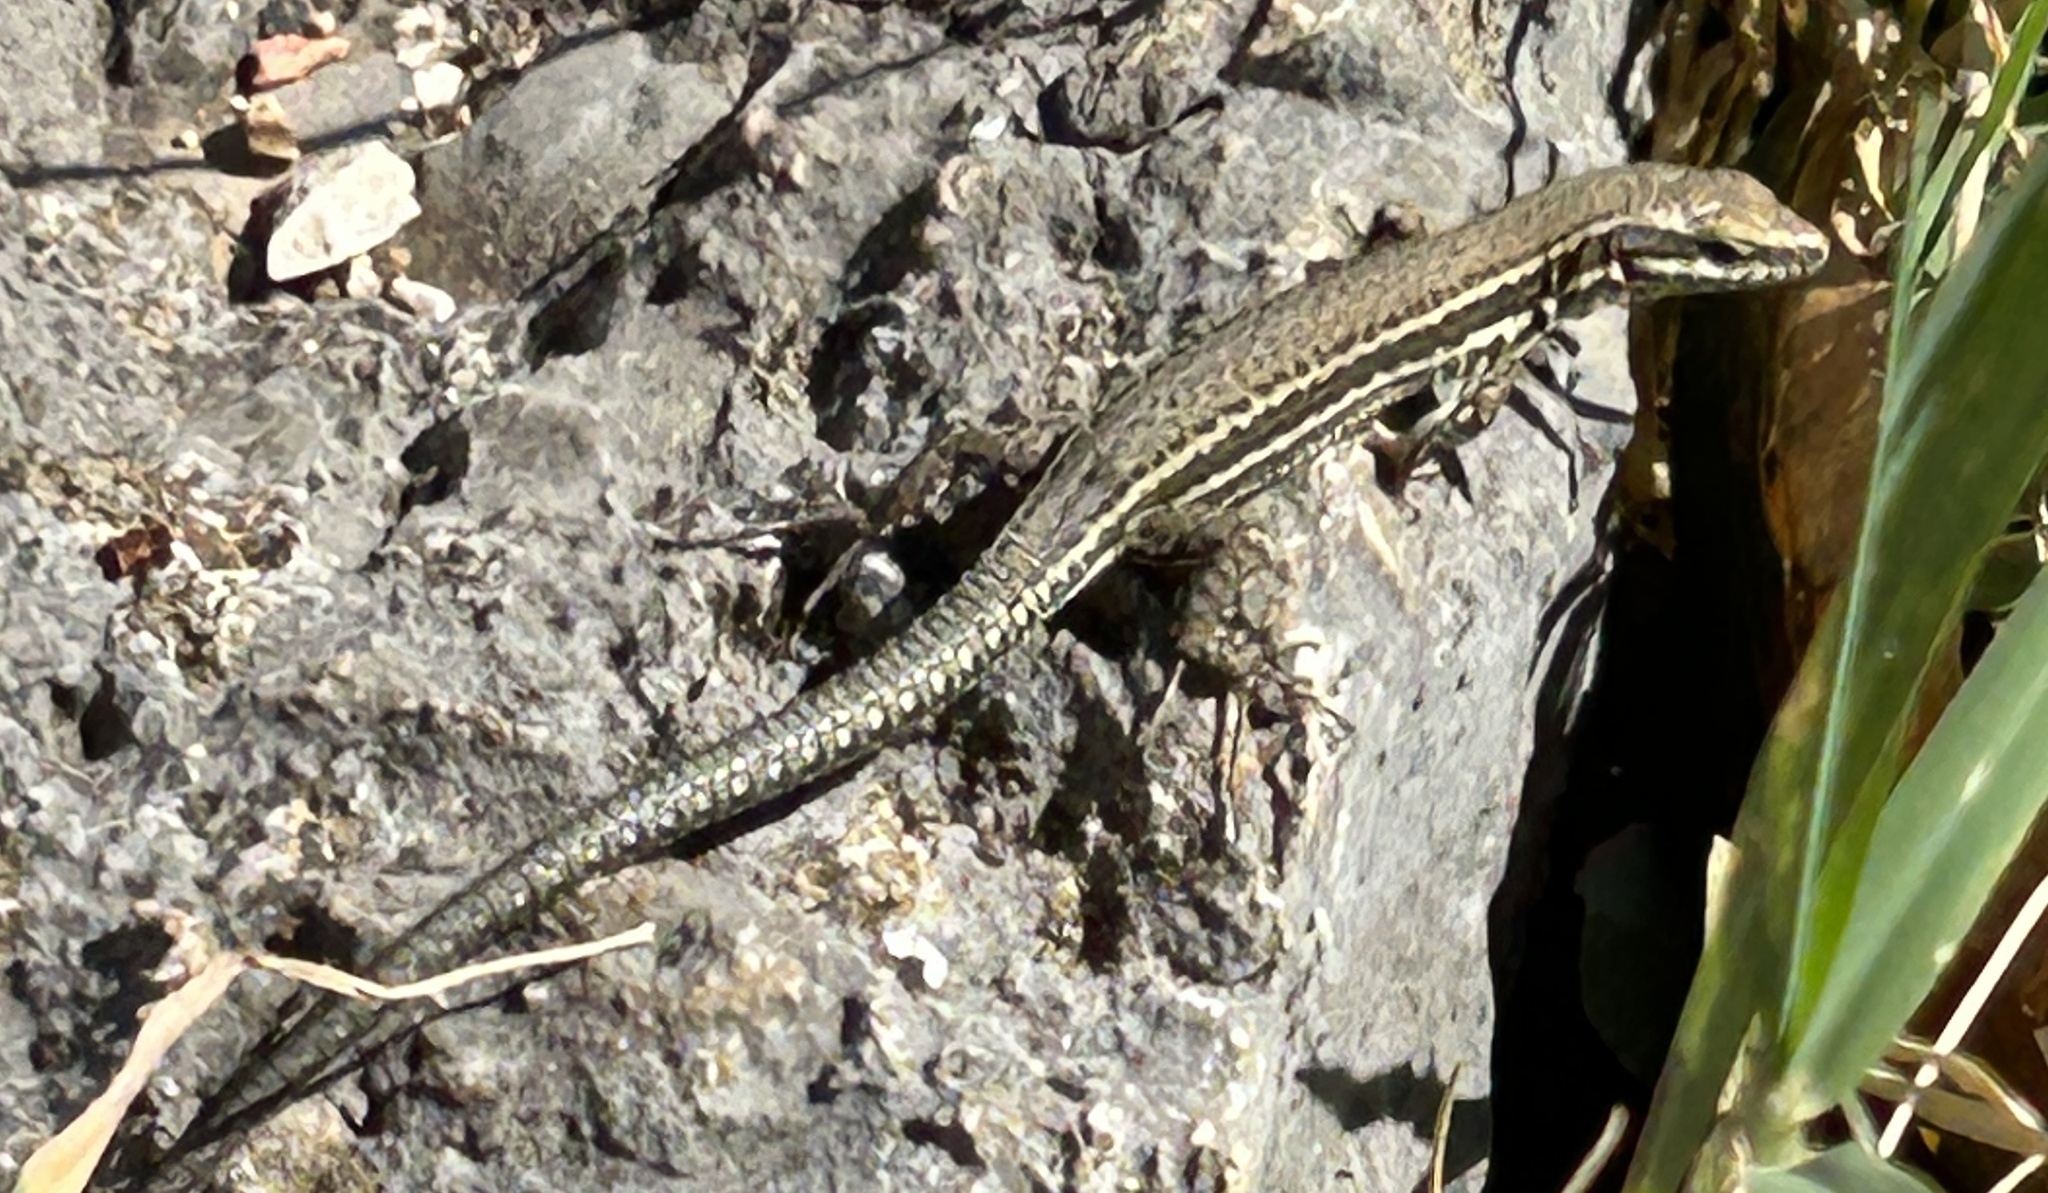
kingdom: Animalia
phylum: Chordata
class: Squamata
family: Lacertidae
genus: Podarcis
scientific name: Podarcis muralis
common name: Common wall lizard
